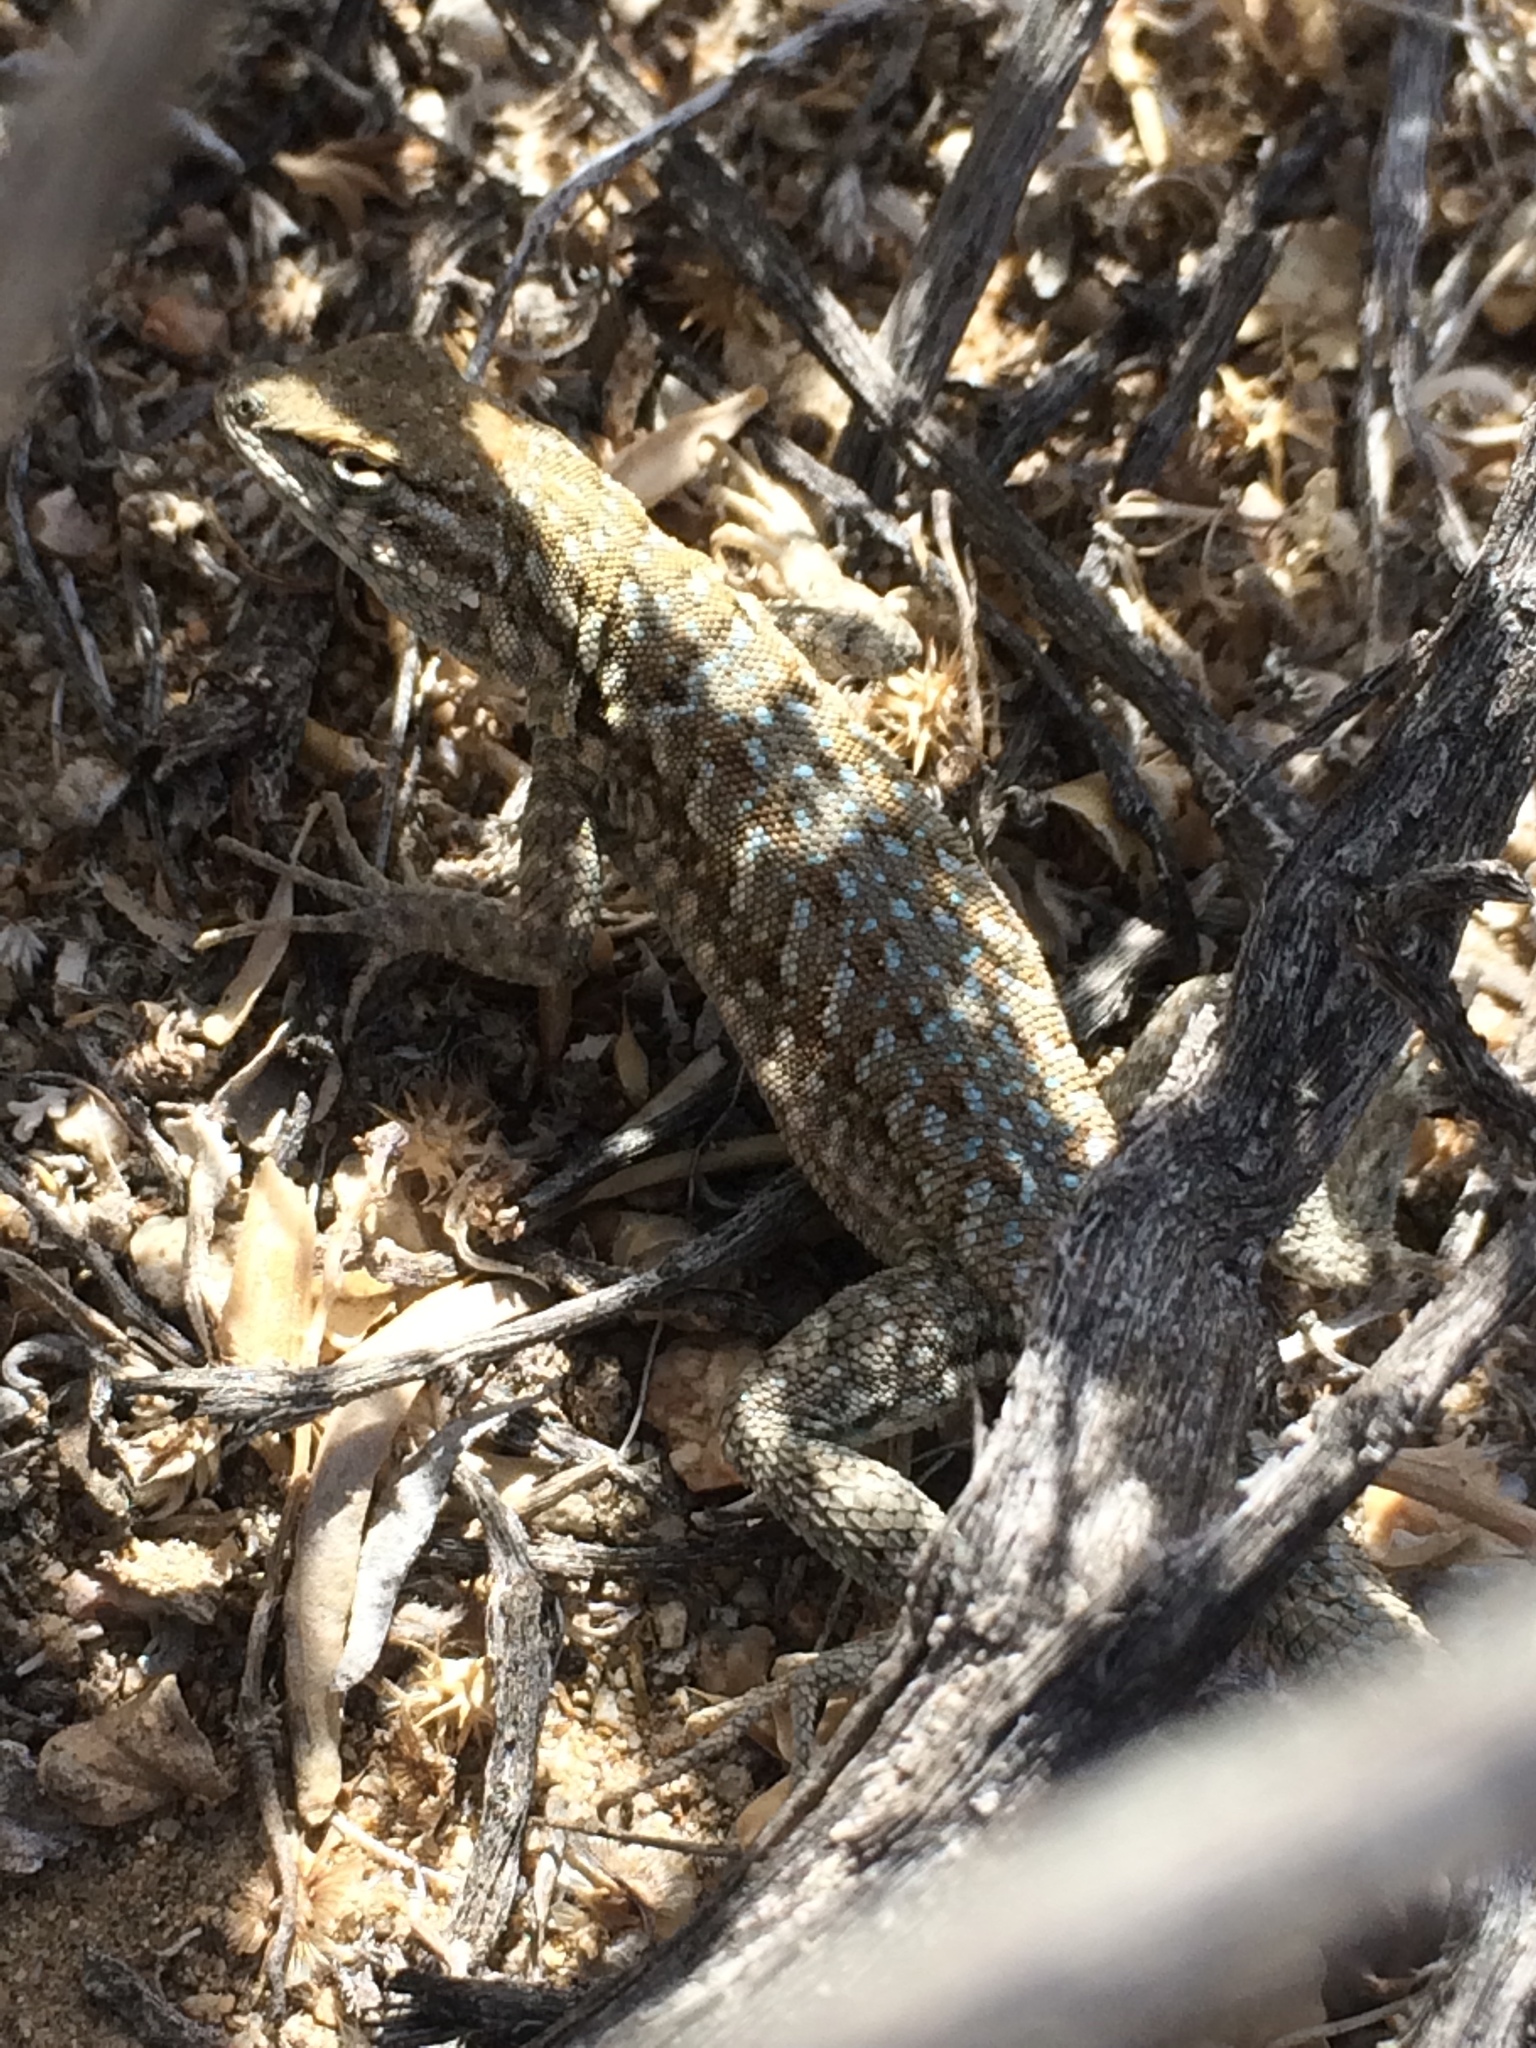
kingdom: Animalia
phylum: Chordata
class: Squamata
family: Phrynosomatidae
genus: Uta
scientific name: Uta stansburiana
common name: Side-blotched lizard
